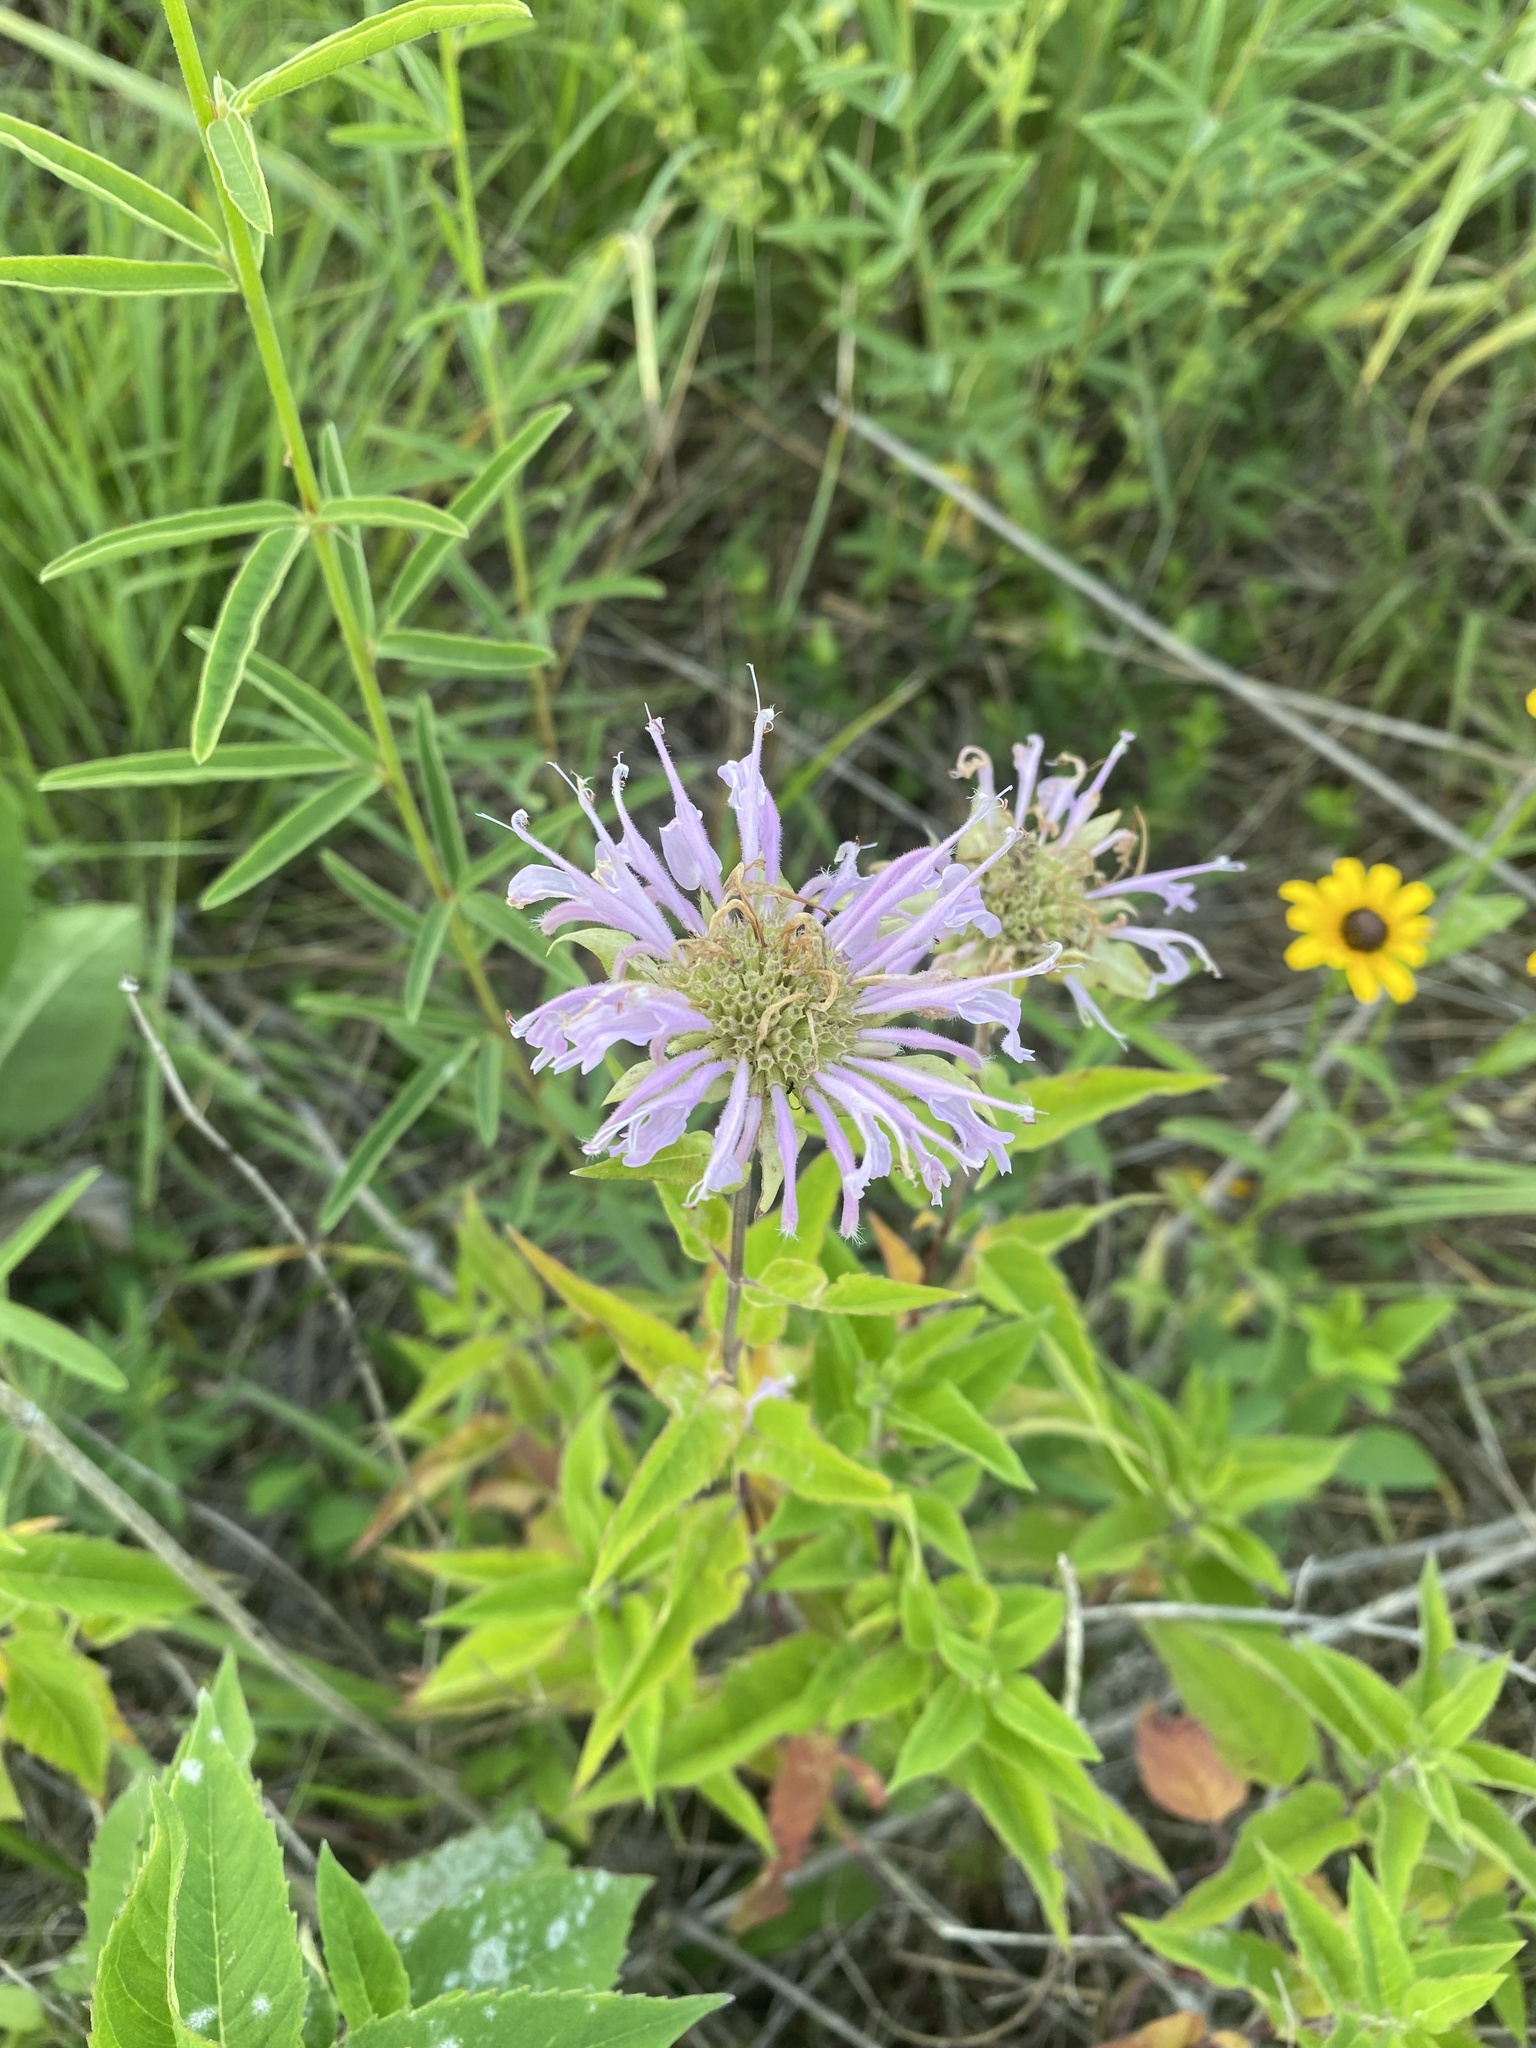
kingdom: Plantae
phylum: Tracheophyta
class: Magnoliopsida
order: Lamiales
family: Lamiaceae
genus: Monarda
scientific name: Monarda fistulosa
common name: Purple beebalm
